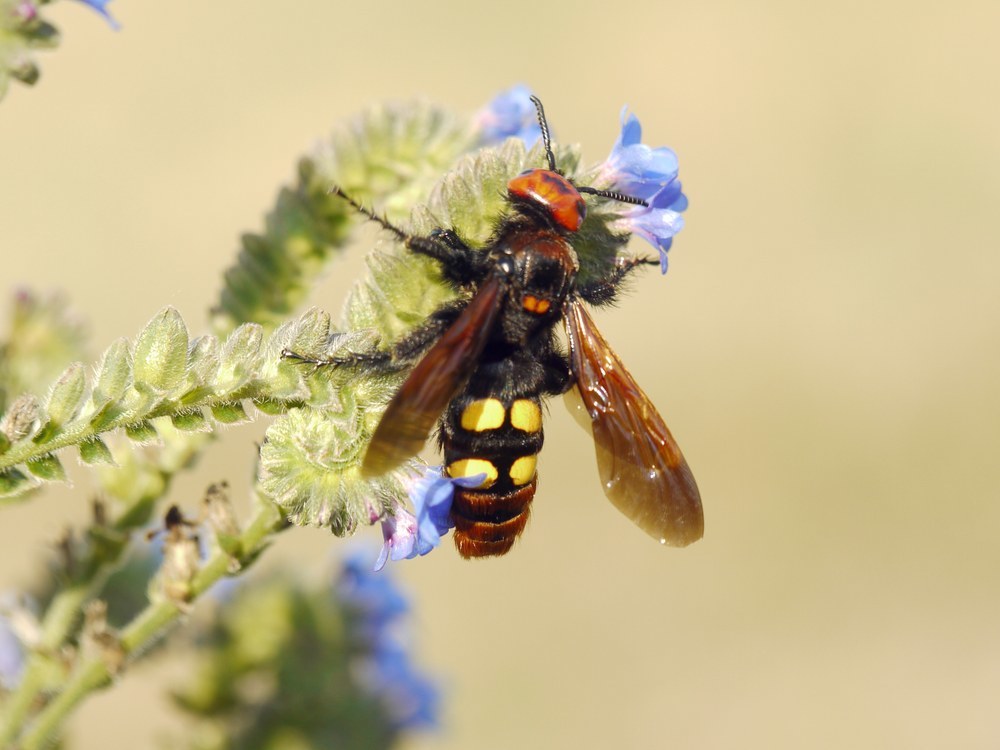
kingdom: Animalia
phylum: Arthropoda
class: Insecta
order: Hymenoptera
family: Scoliidae
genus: Megascolia
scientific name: Megascolia maculata
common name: Mammoth wasp
